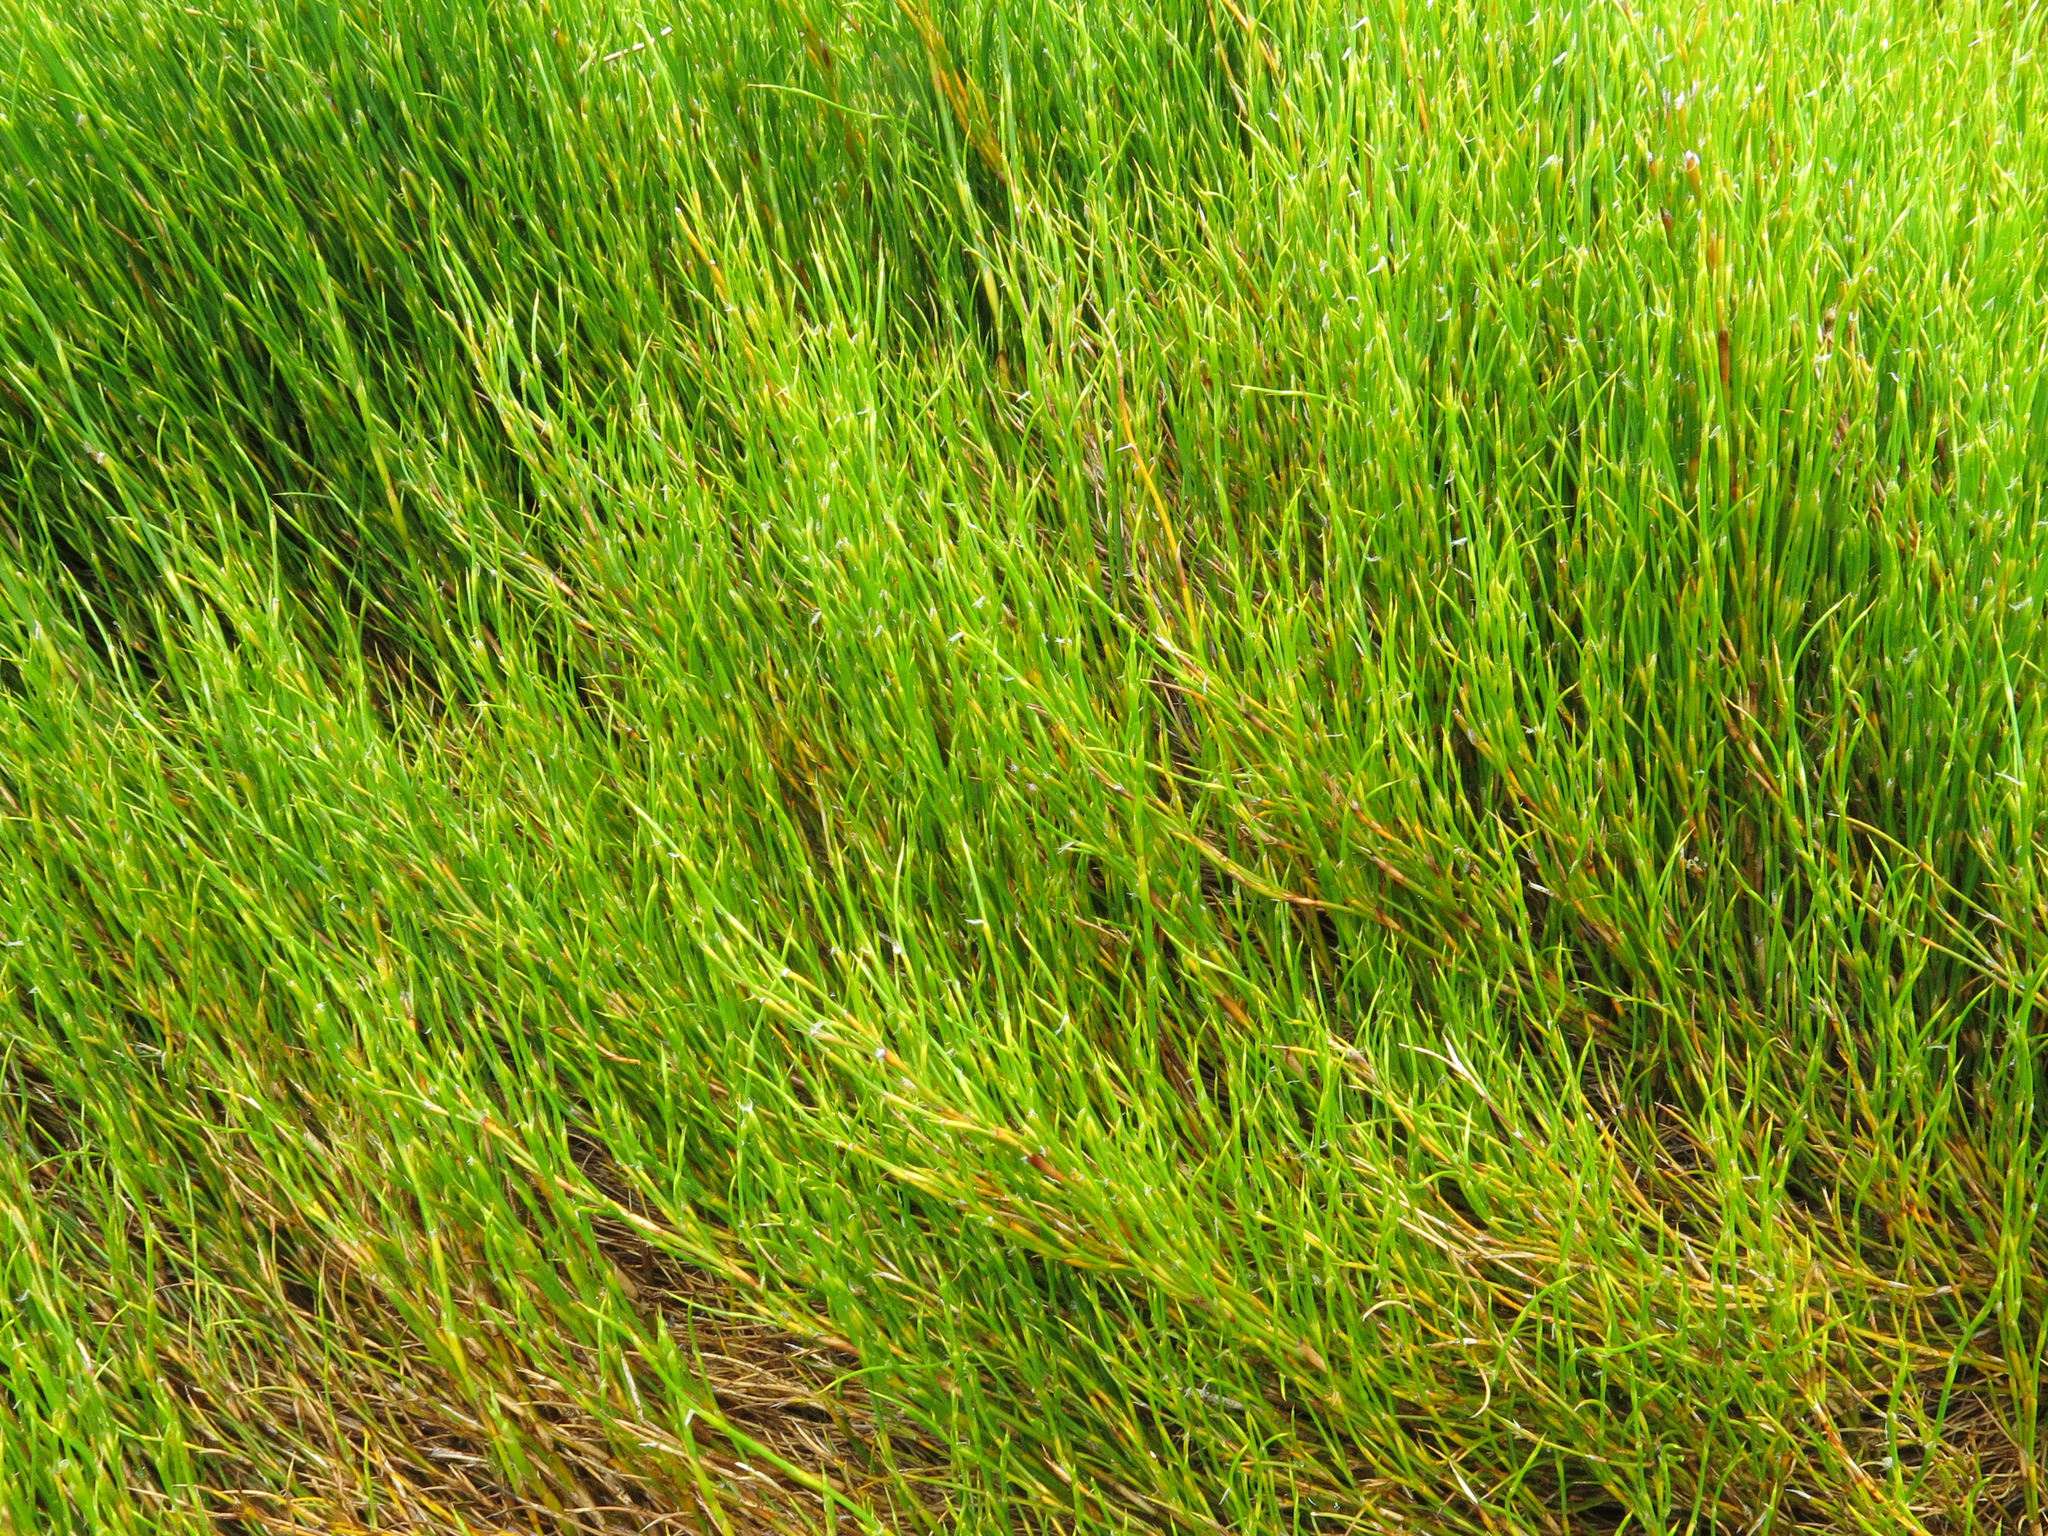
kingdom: Plantae
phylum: Tracheophyta
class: Liliopsida
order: Poales
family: Restionaceae
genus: Empodisma
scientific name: Empodisma minus
